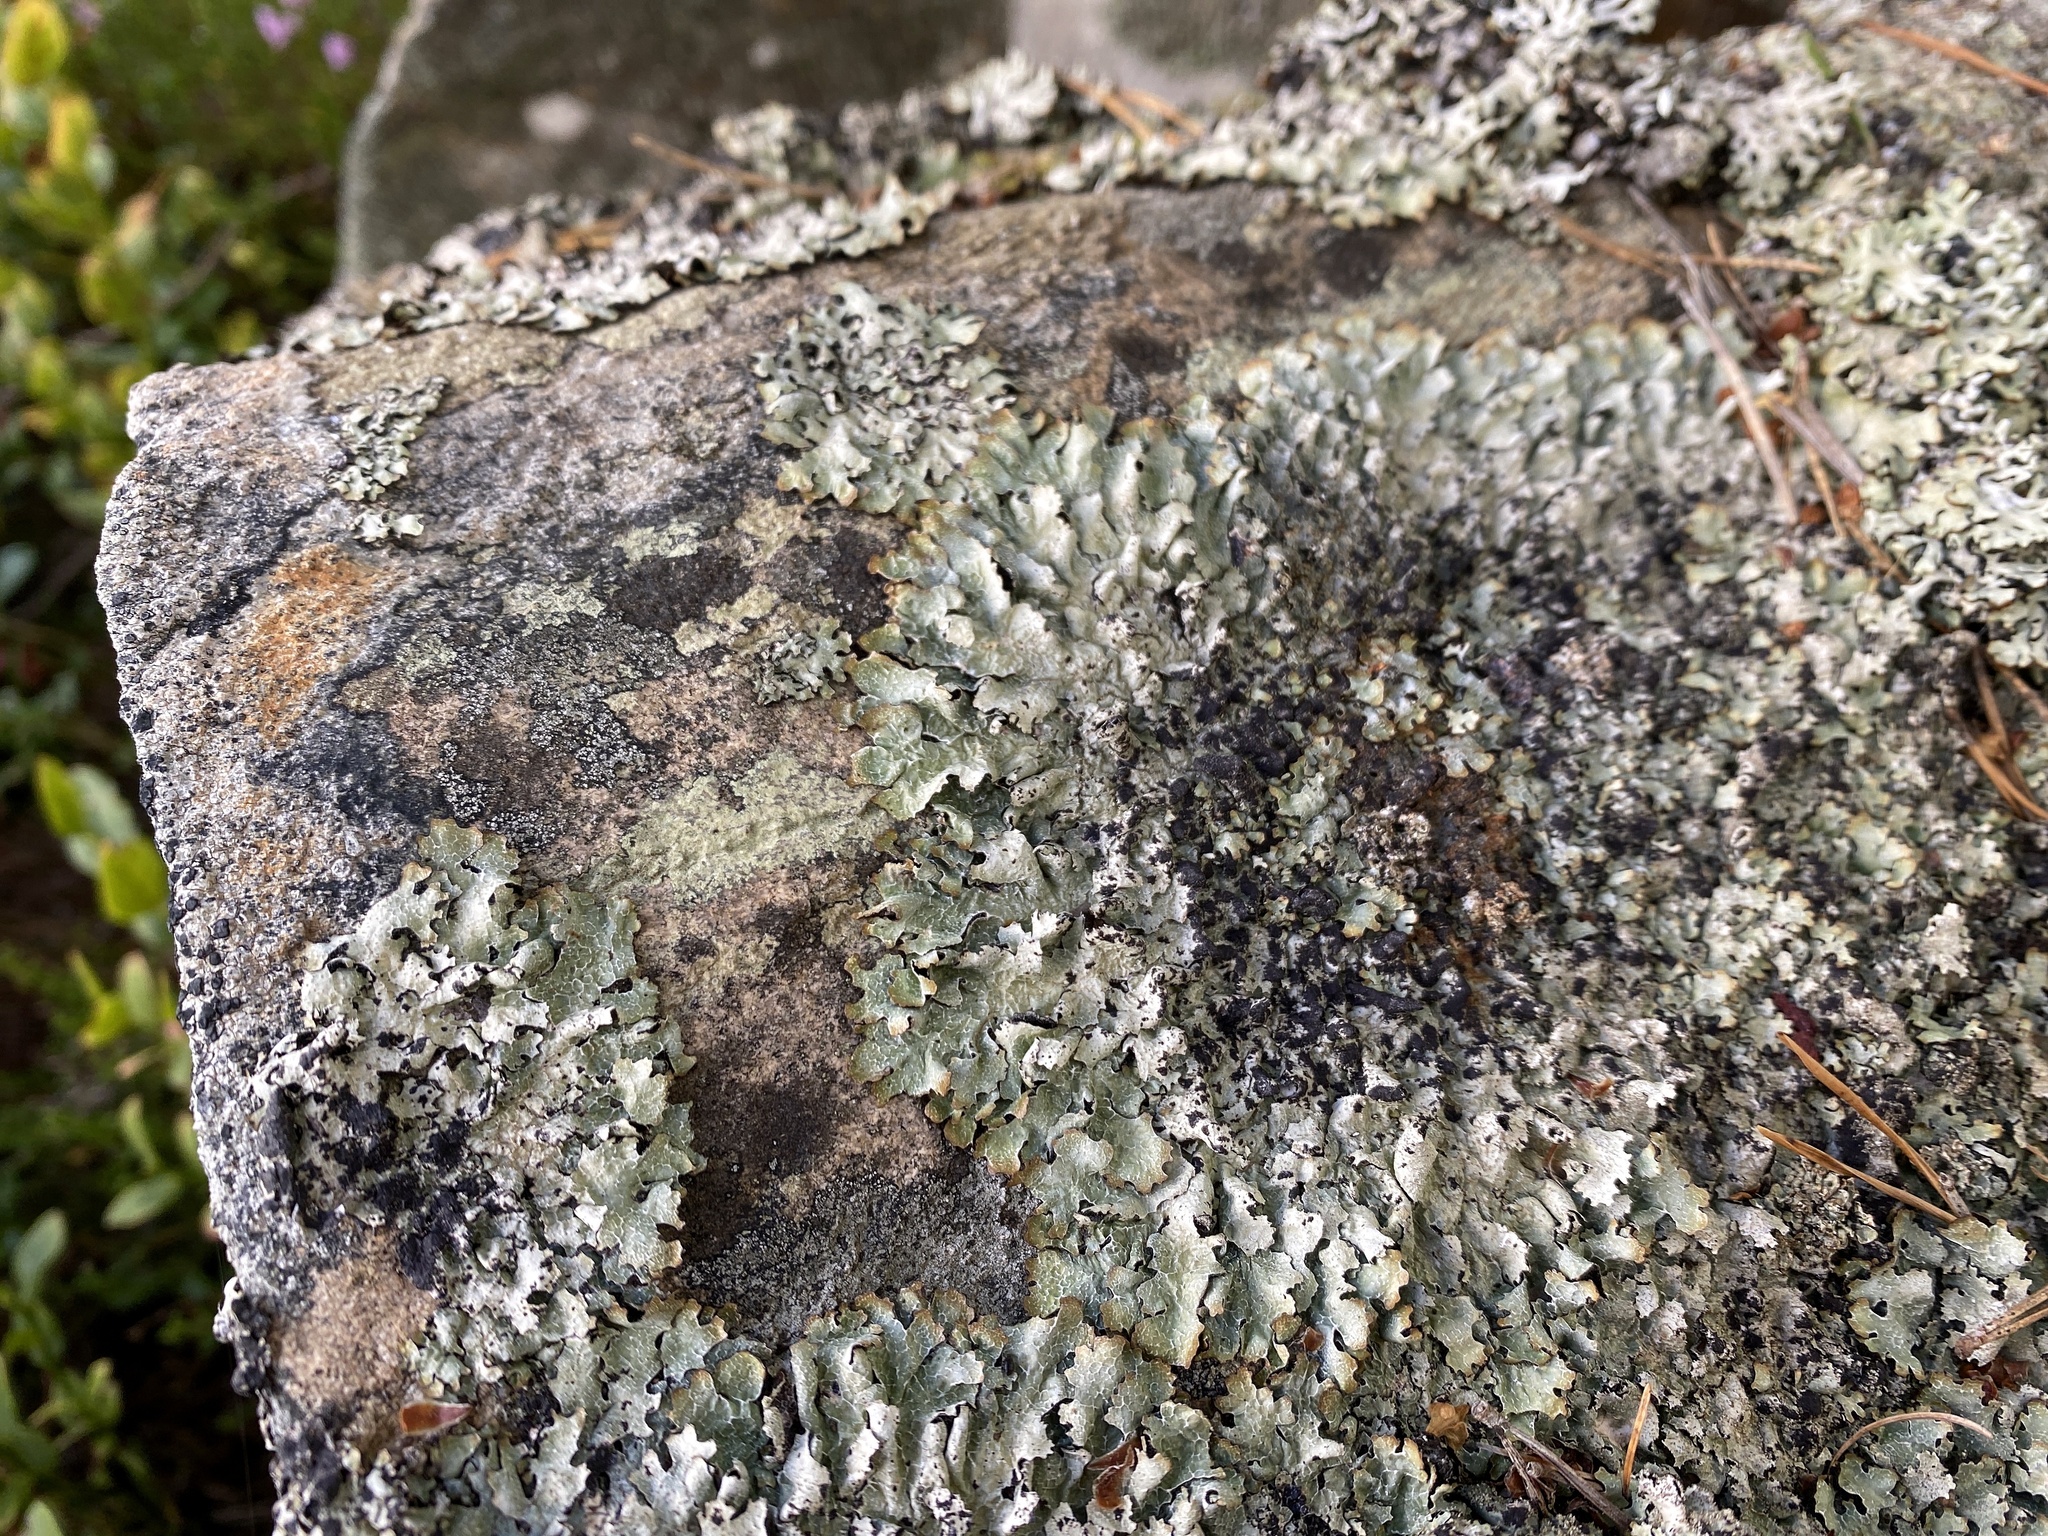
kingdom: Fungi
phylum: Ascomycota
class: Lecanoromycetes
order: Lecanorales
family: Parmeliaceae
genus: Parmelia
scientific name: Parmelia saxatilis
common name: Salted shield lichen
